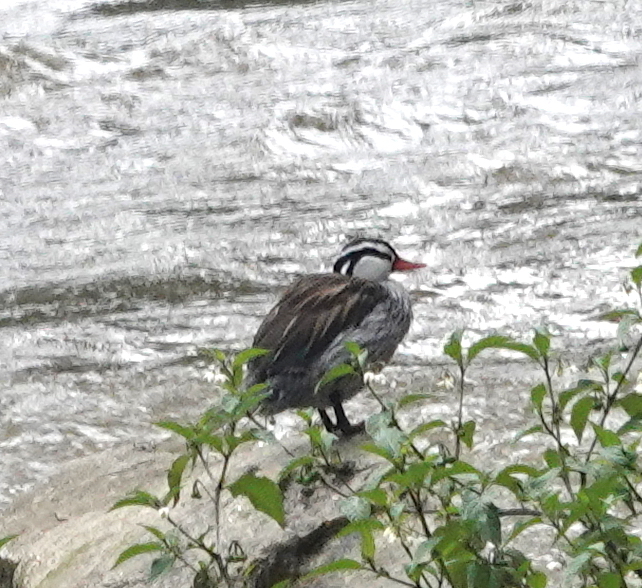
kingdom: Animalia
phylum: Chordata
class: Aves
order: Anseriformes
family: Anatidae
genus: Merganetta
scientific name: Merganetta armata
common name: Torrent duck
